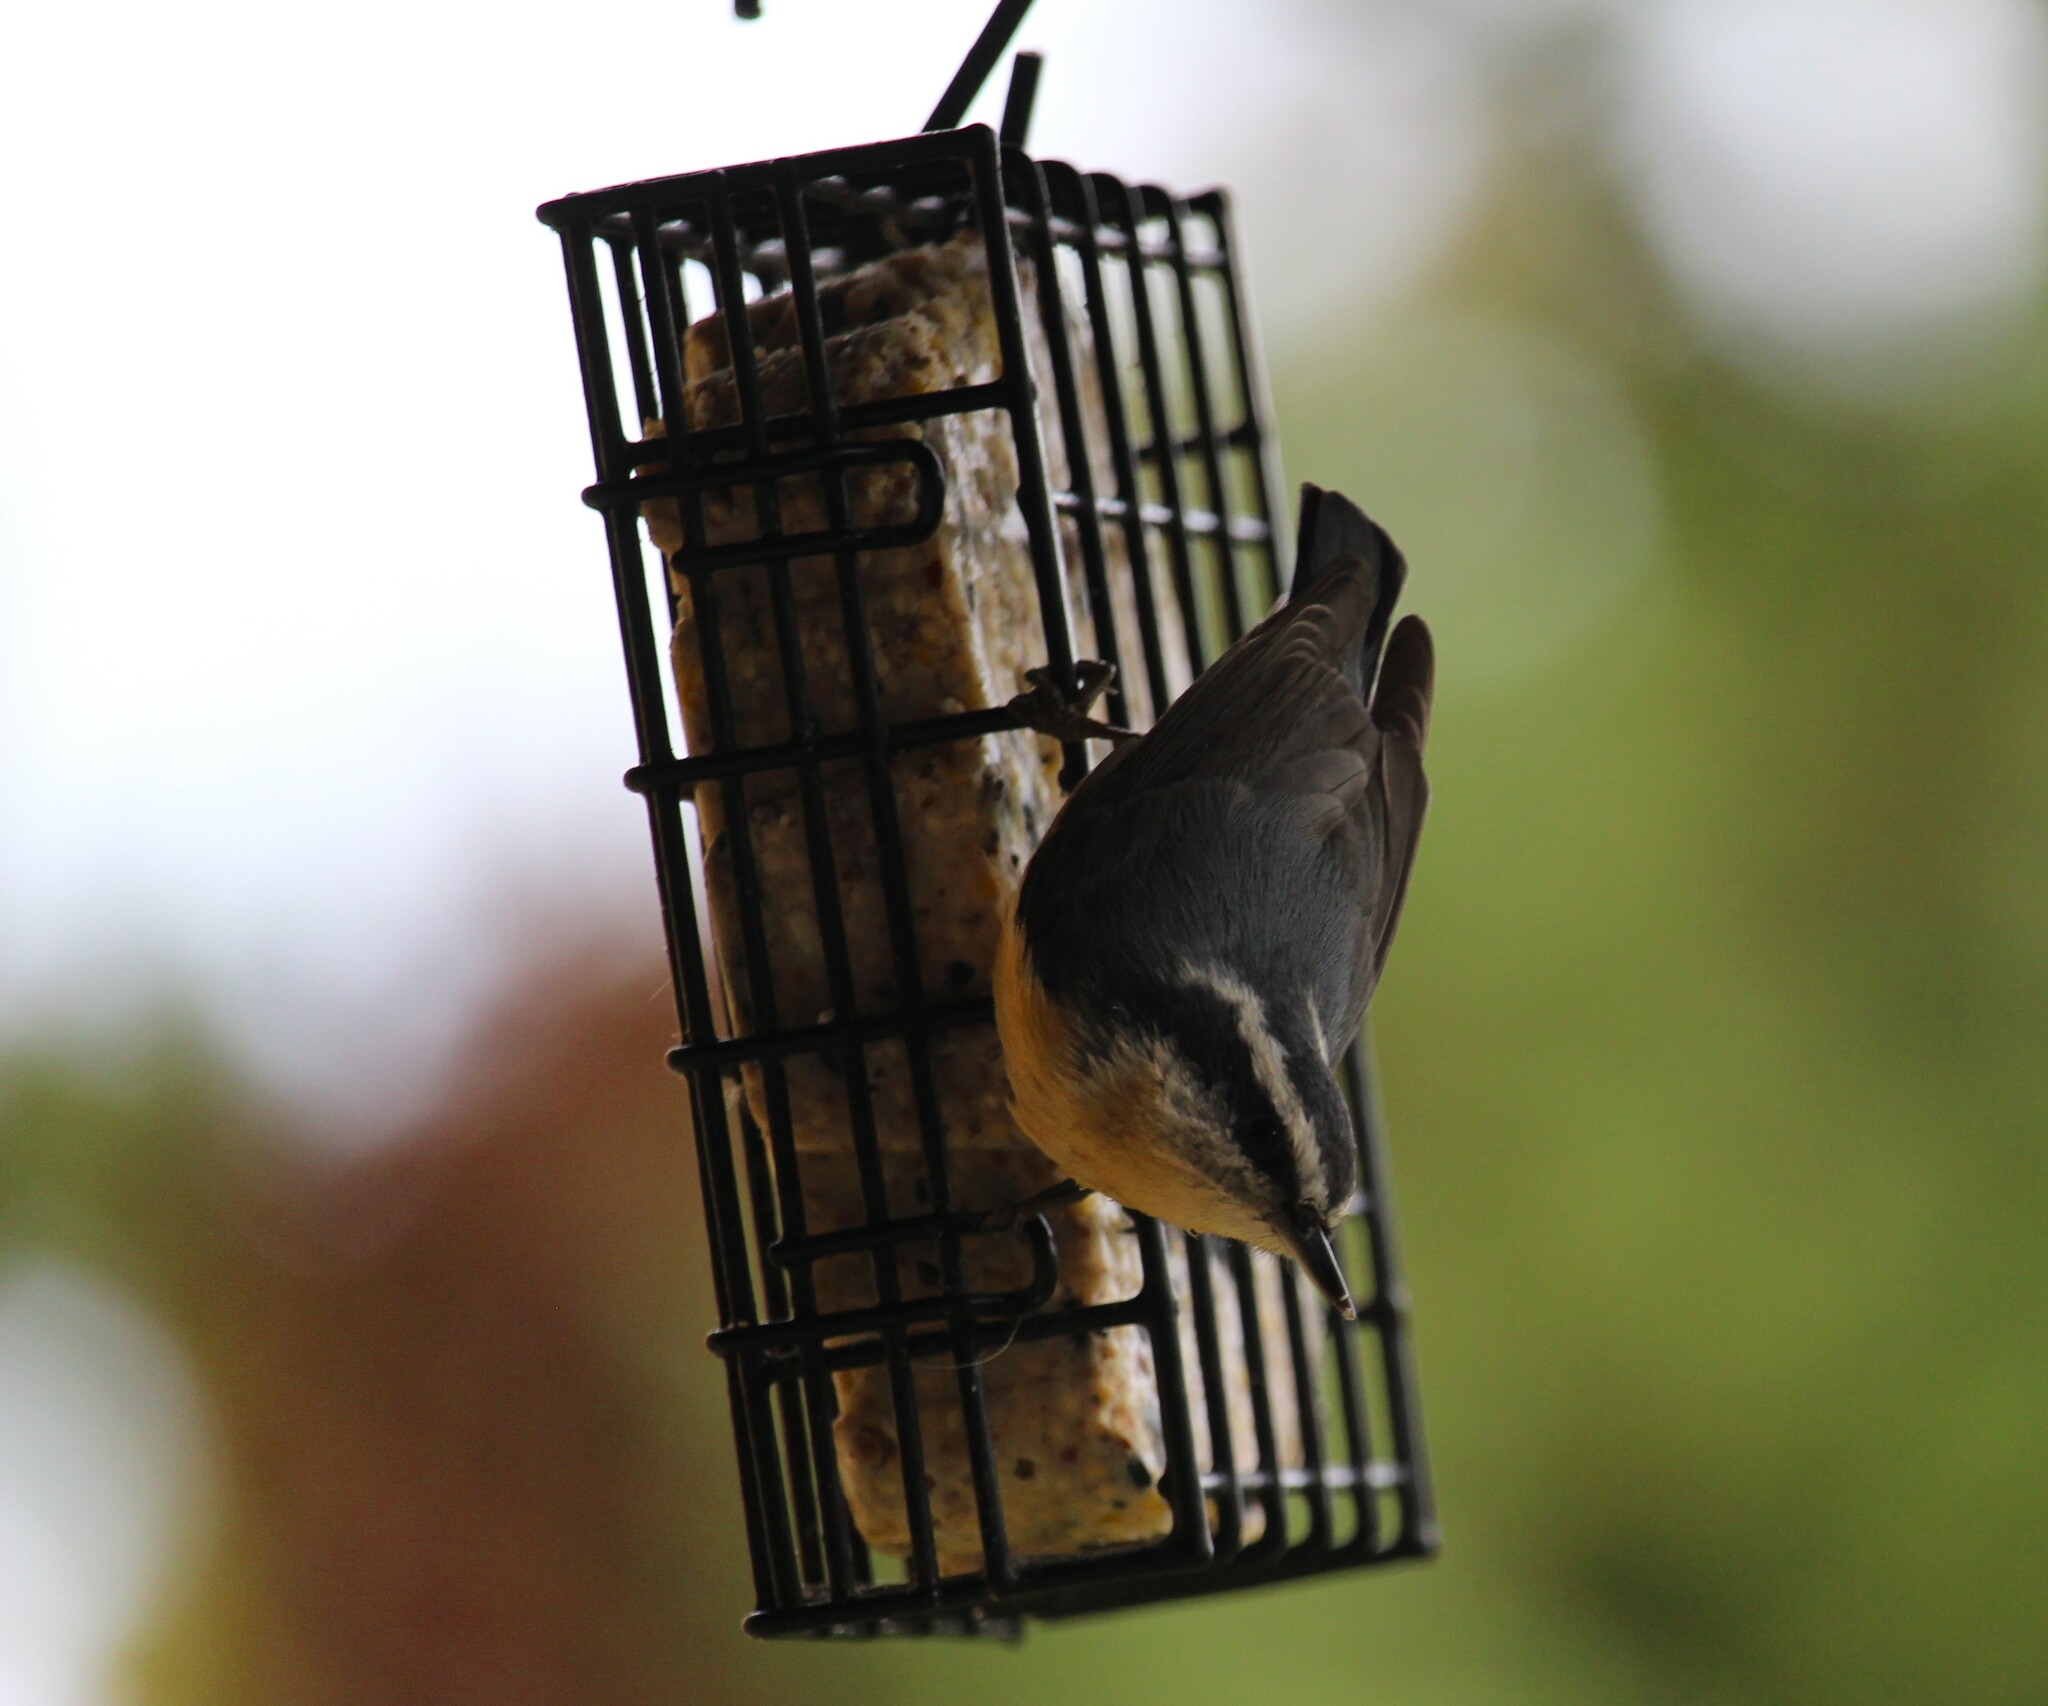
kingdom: Animalia
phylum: Chordata
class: Aves
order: Passeriformes
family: Sittidae
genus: Sitta
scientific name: Sitta canadensis
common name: Red-breasted nuthatch
